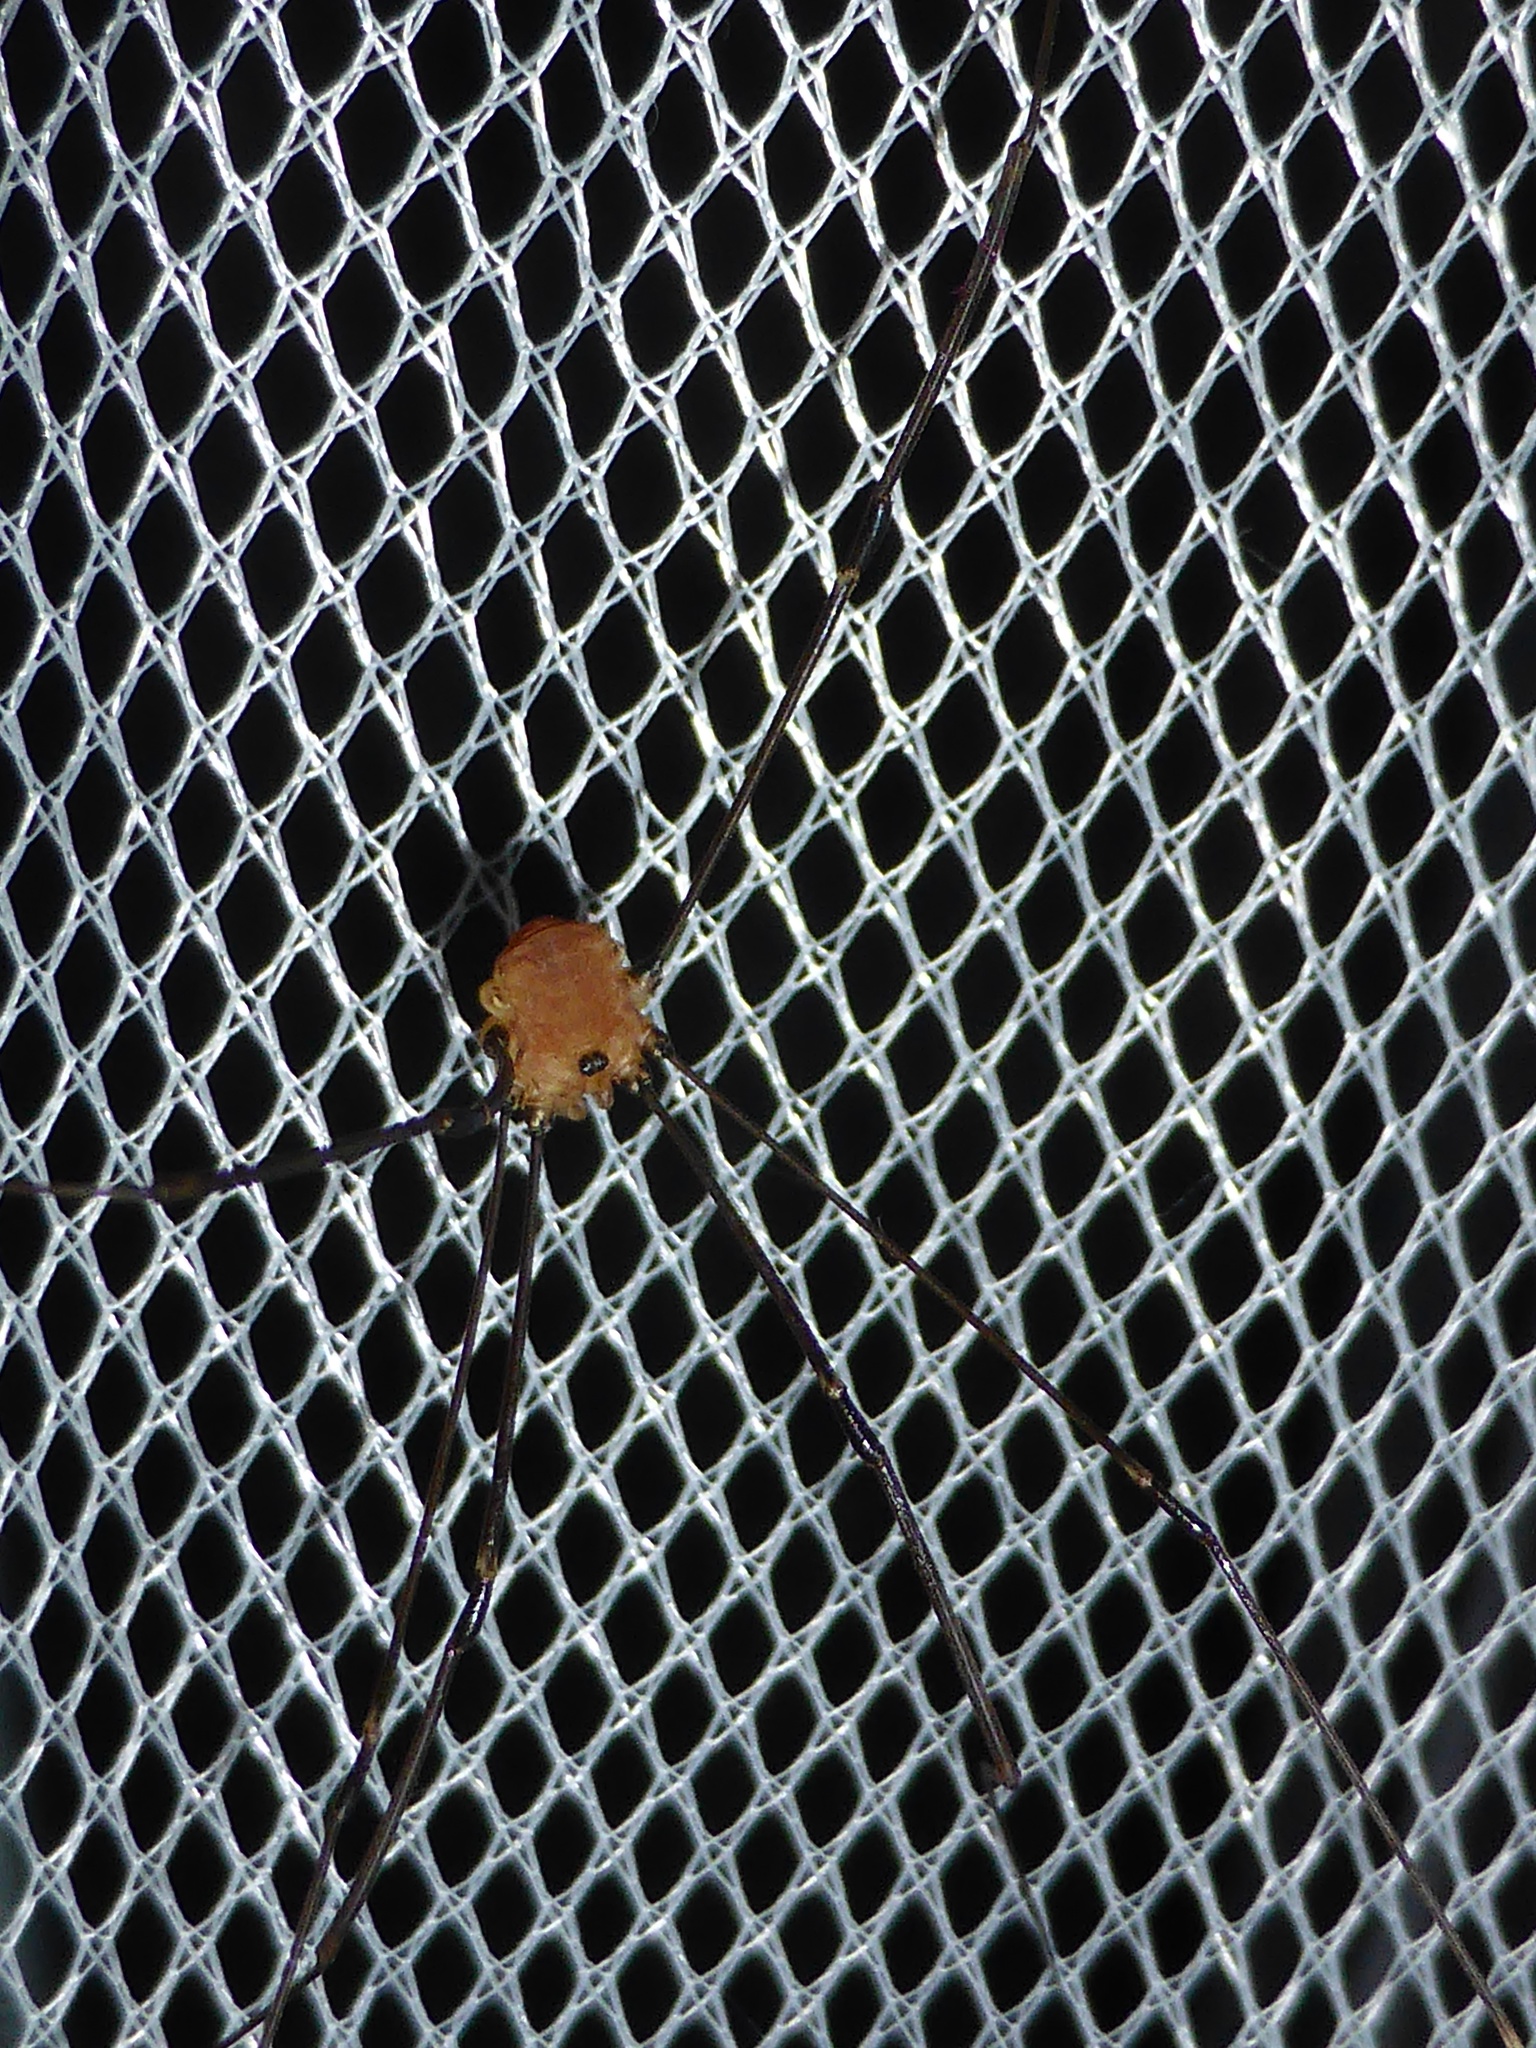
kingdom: Animalia
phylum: Arthropoda
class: Arachnida
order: Opiliones
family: Sclerosomatidae
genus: Leiobunum
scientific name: Leiobunum rotundum
